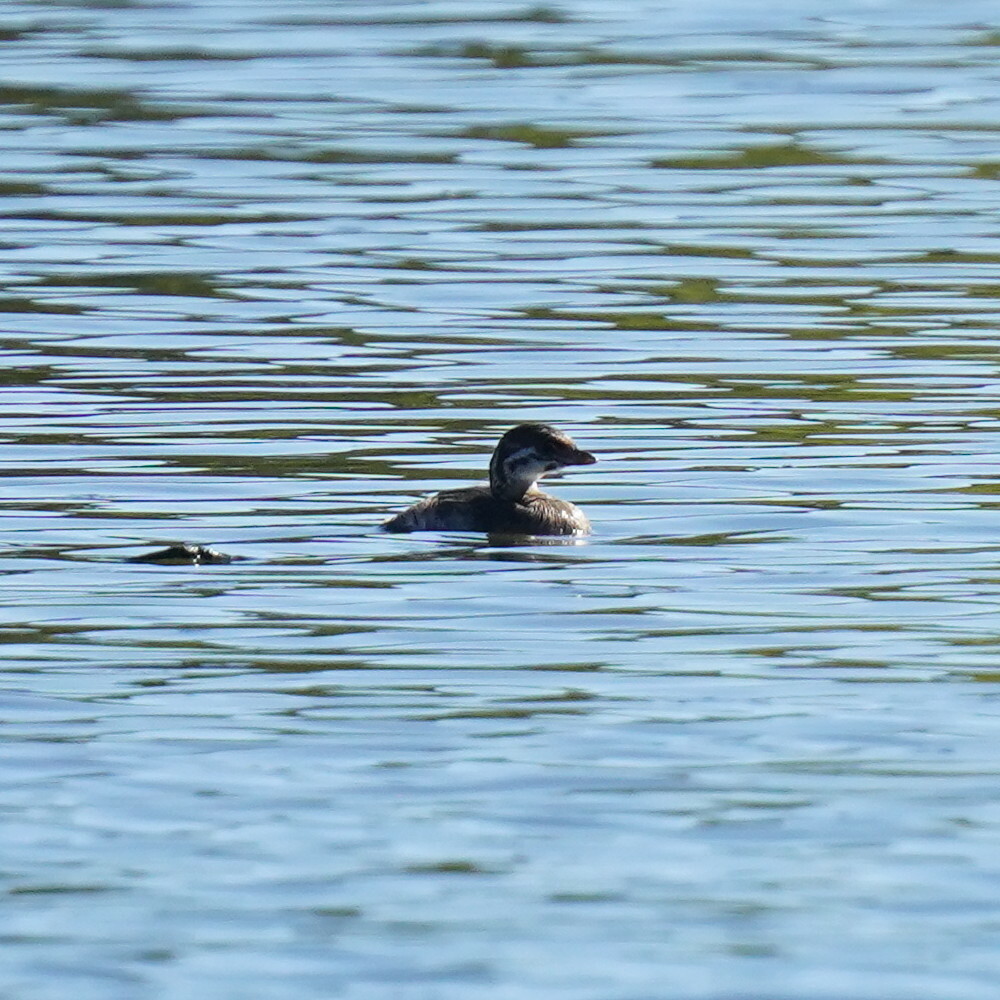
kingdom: Animalia
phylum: Chordata
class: Aves
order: Podicipediformes
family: Podicipedidae
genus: Podilymbus
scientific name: Podilymbus podiceps
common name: Pied-billed grebe
